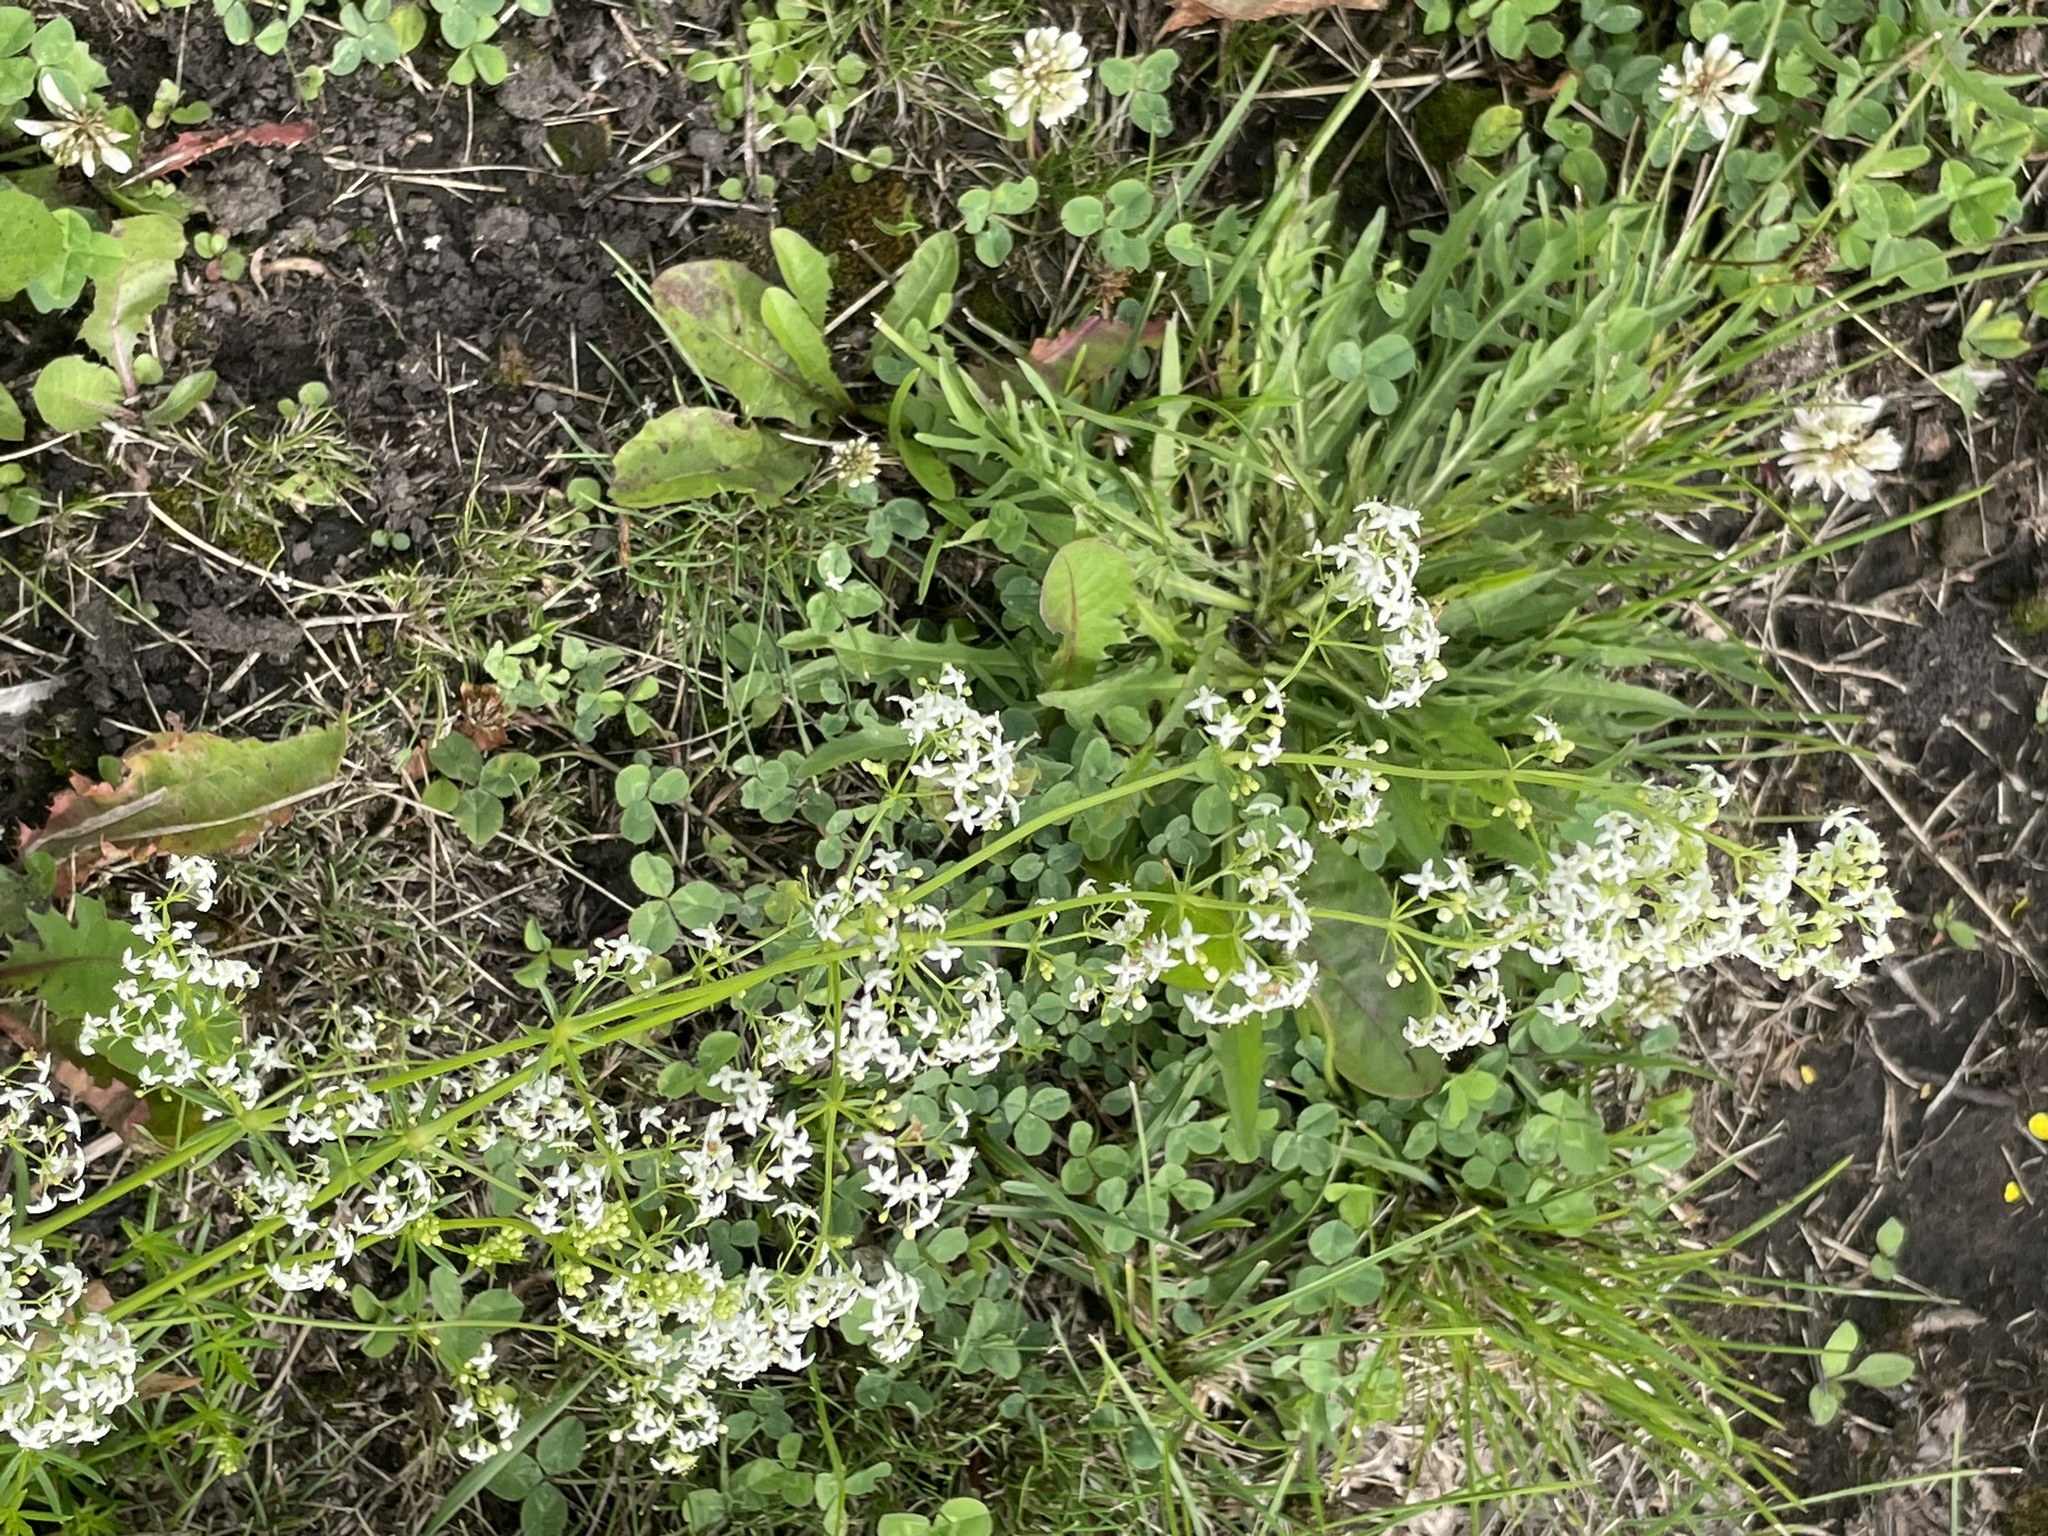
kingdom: Plantae
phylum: Tracheophyta
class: Magnoliopsida
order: Gentianales
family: Rubiaceae
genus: Galium
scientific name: Galium mollugo
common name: Hedge bedstraw
